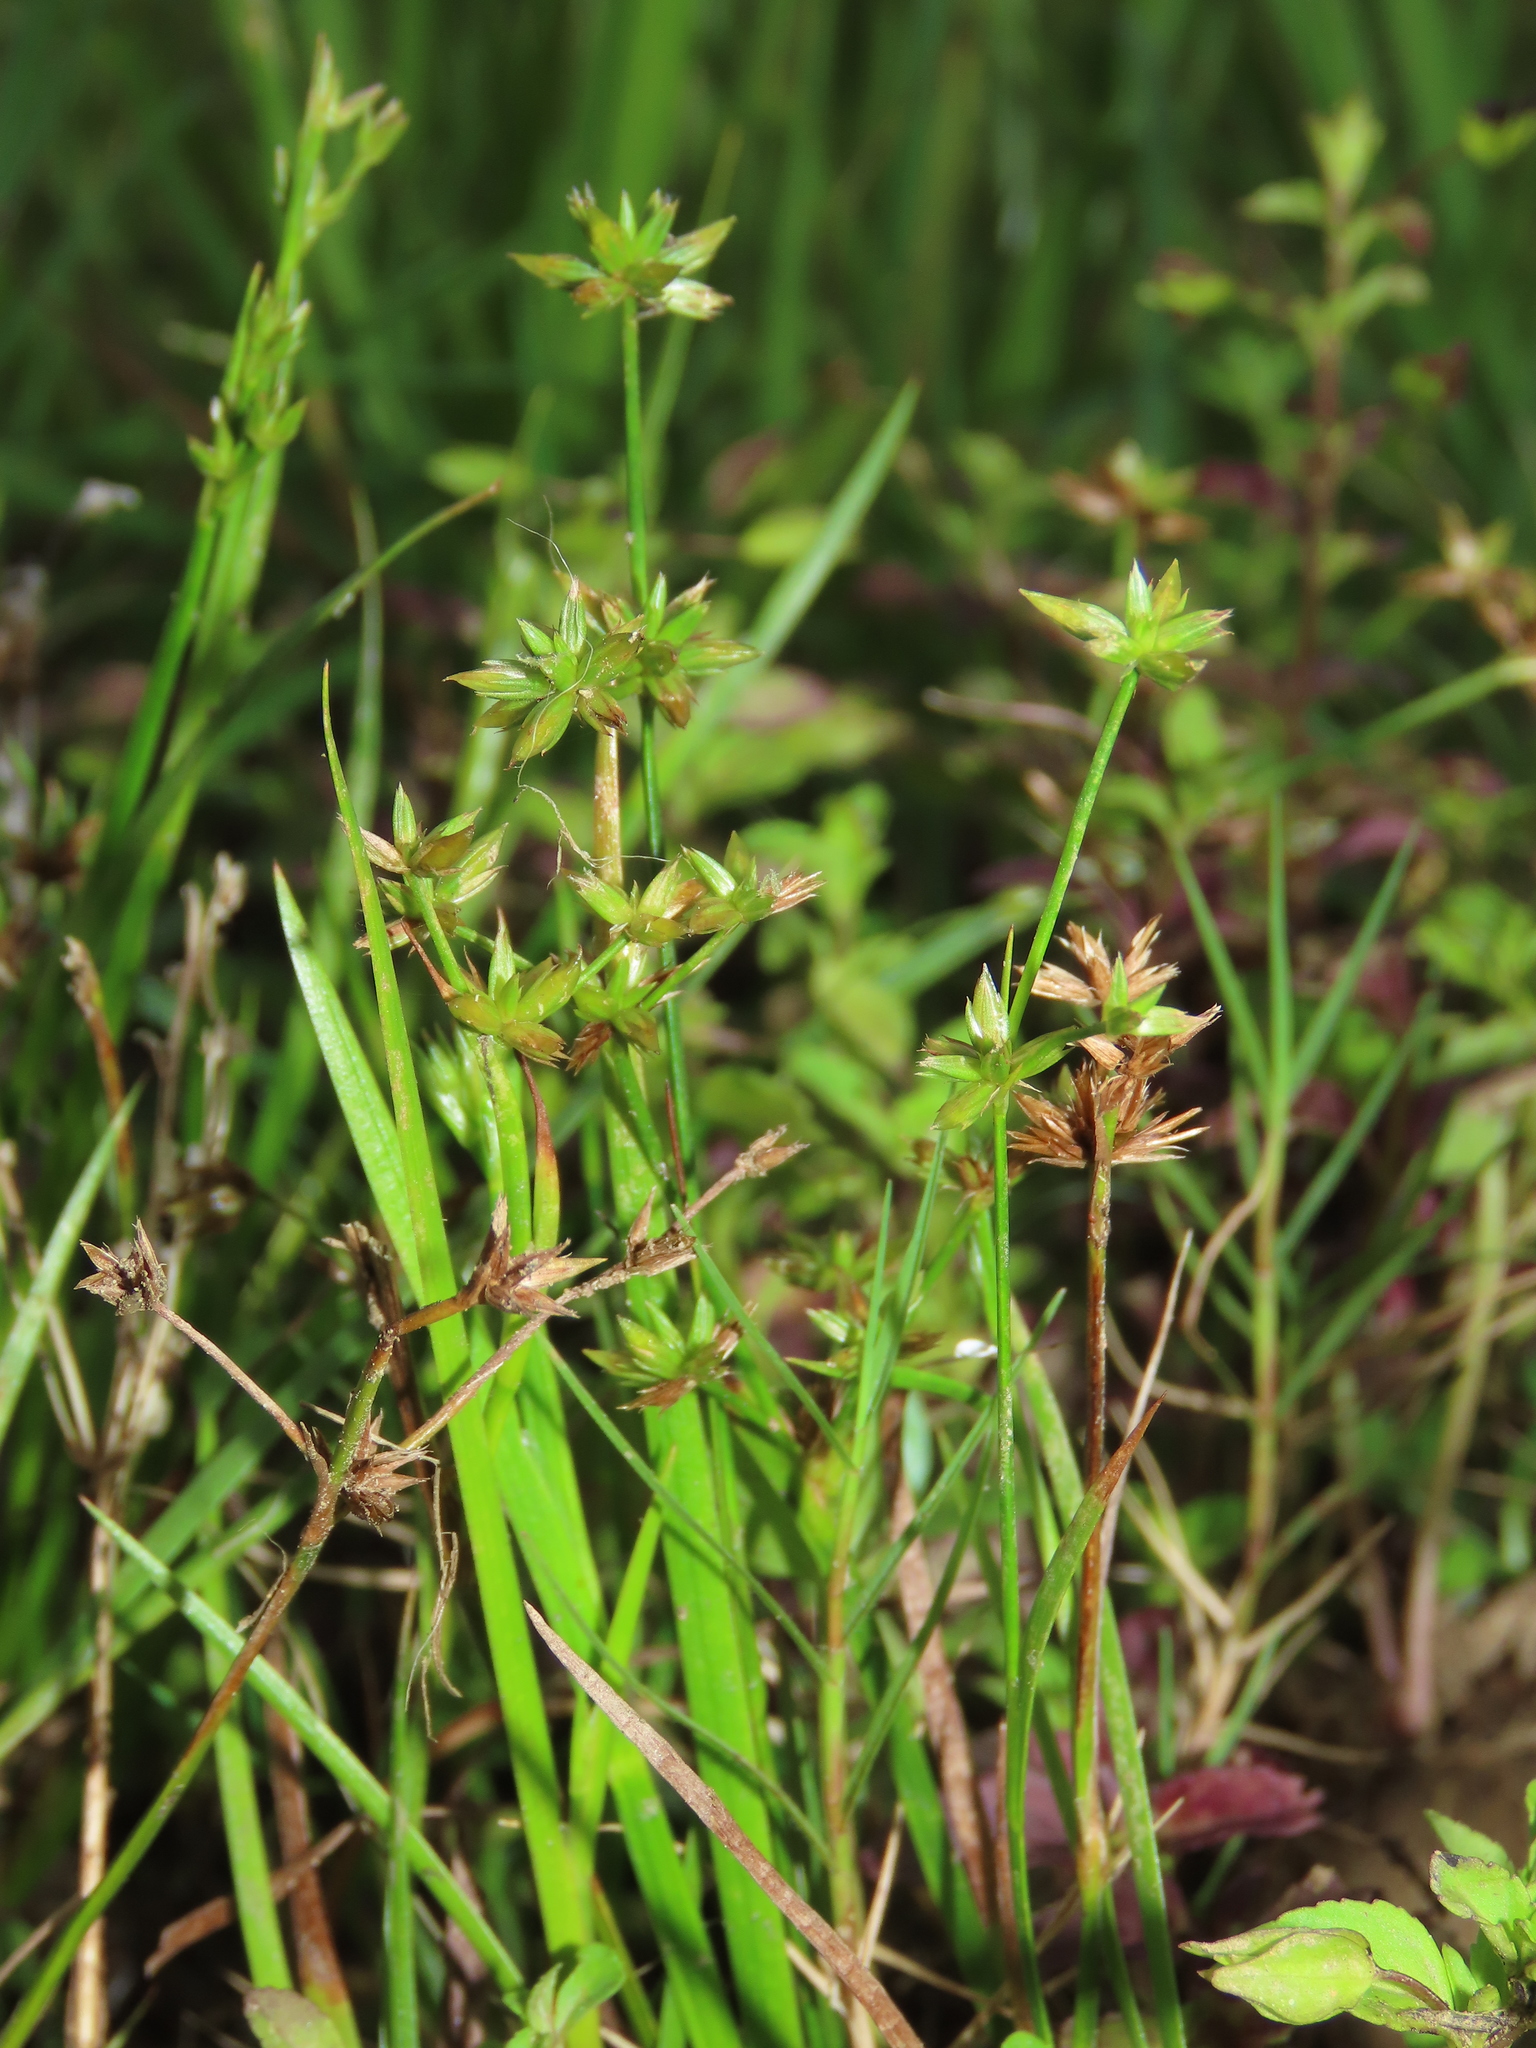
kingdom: Plantae
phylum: Tracheophyta
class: Liliopsida
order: Poales
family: Juncaceae
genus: Juncus
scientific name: Juncus prismatocarpus
